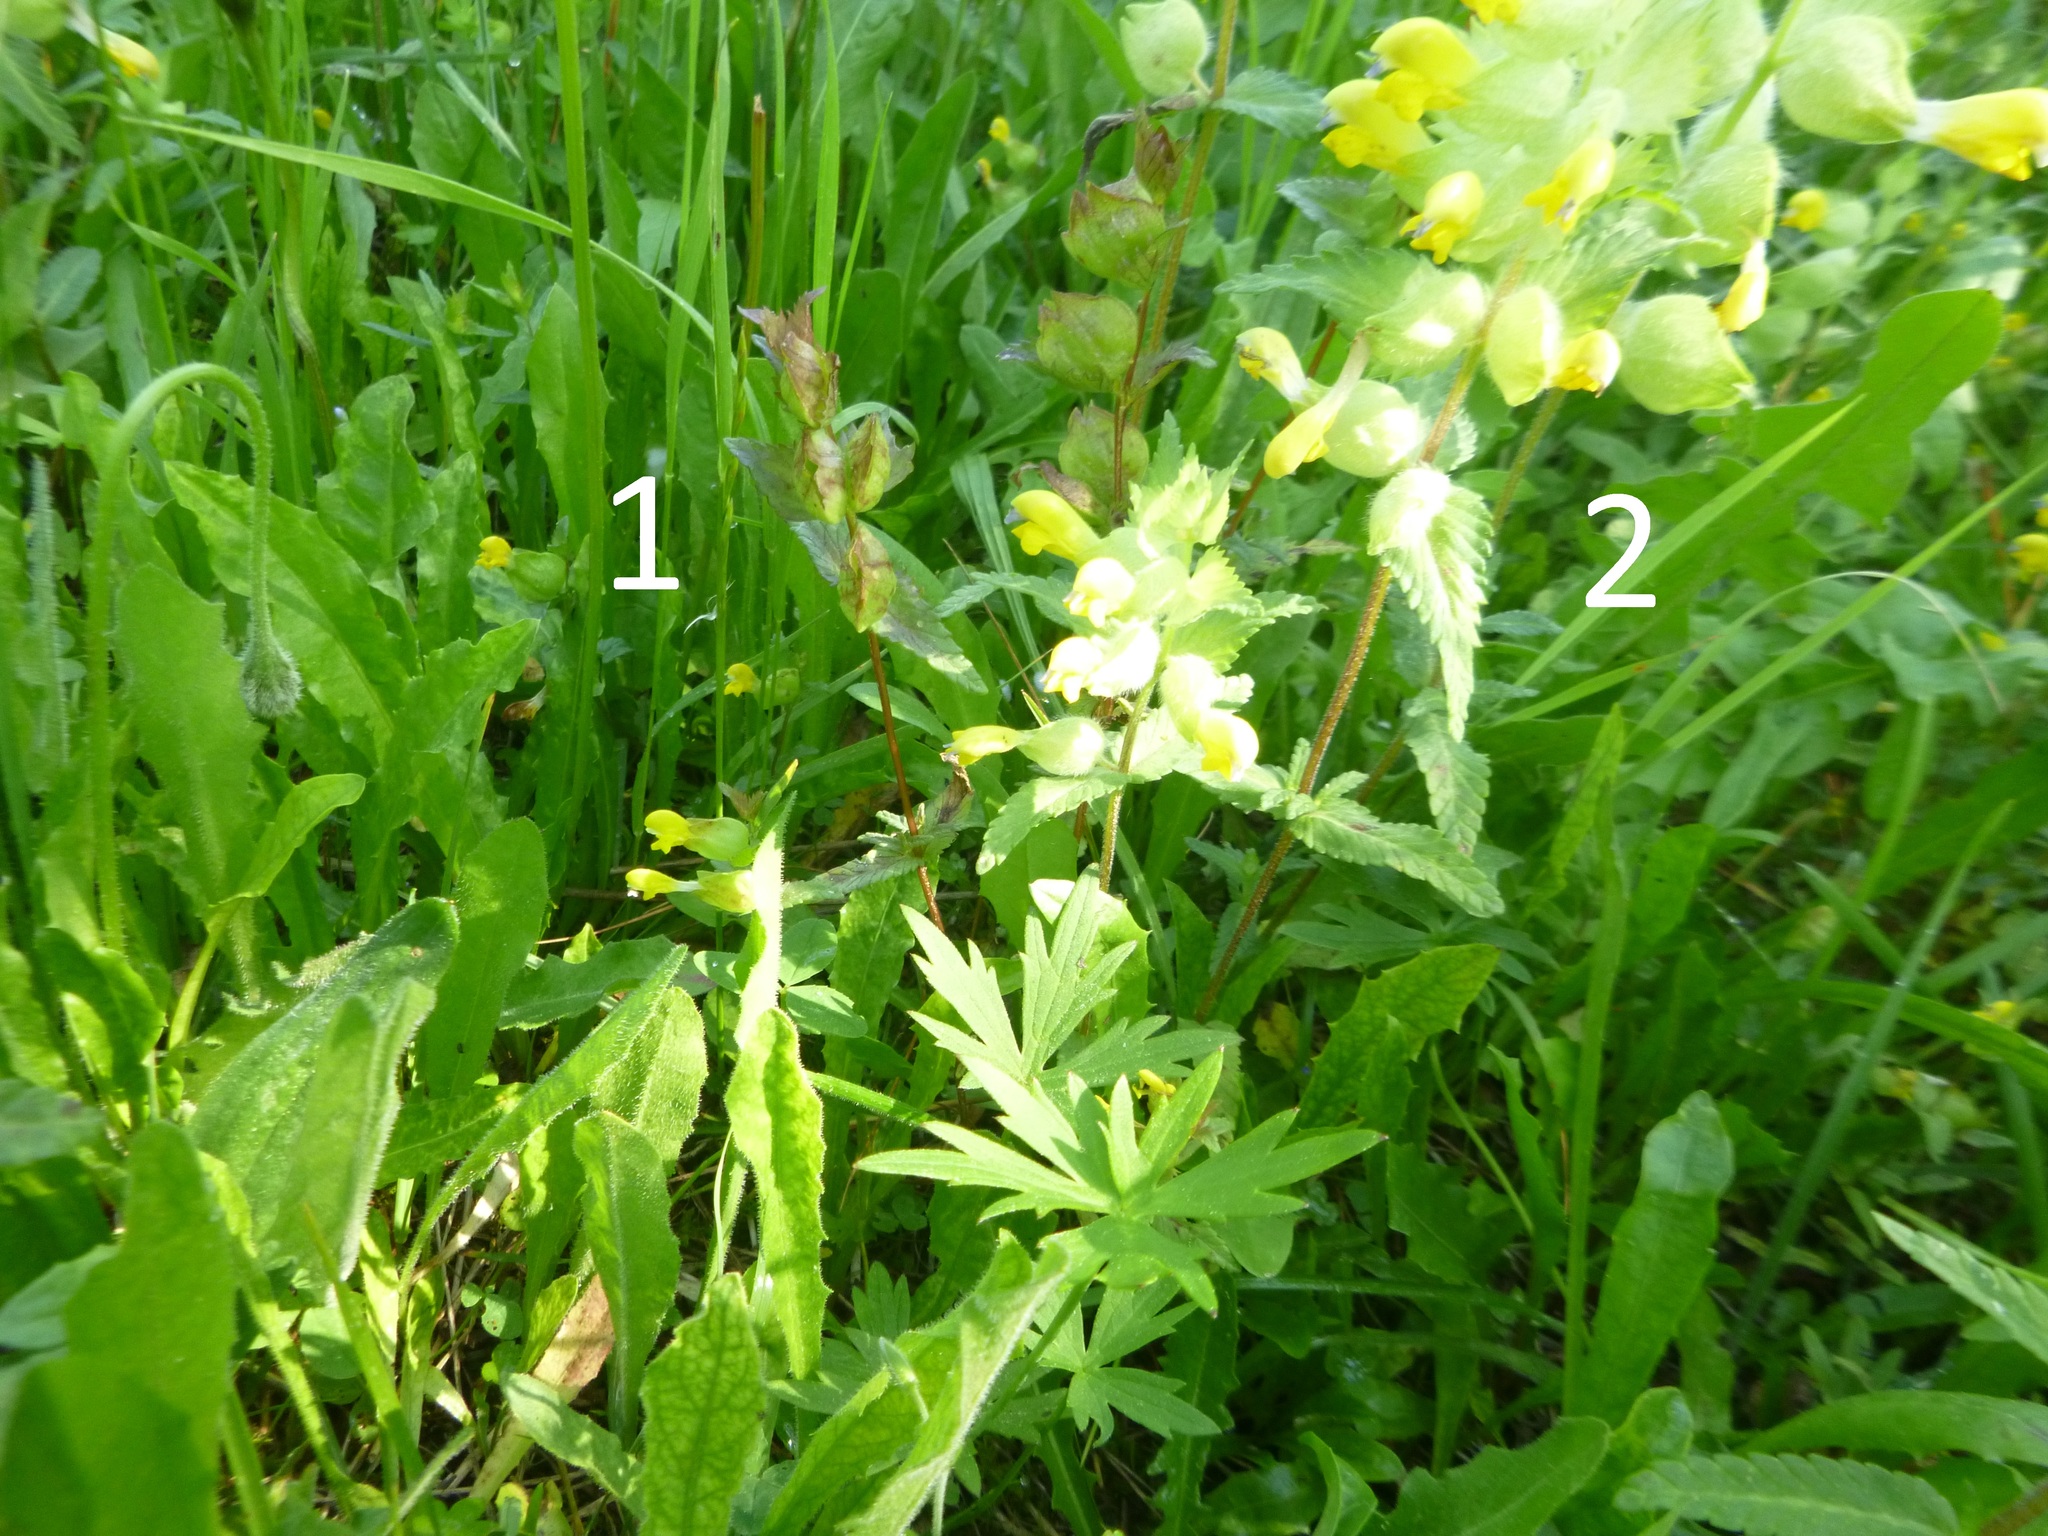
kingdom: Plantae
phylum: Tracheophyta
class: Magnoliopsida
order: Lamiales
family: Orobanchaceae
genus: Rhinanthus
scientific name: Rhinanthus minor
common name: Yellow-rattle
